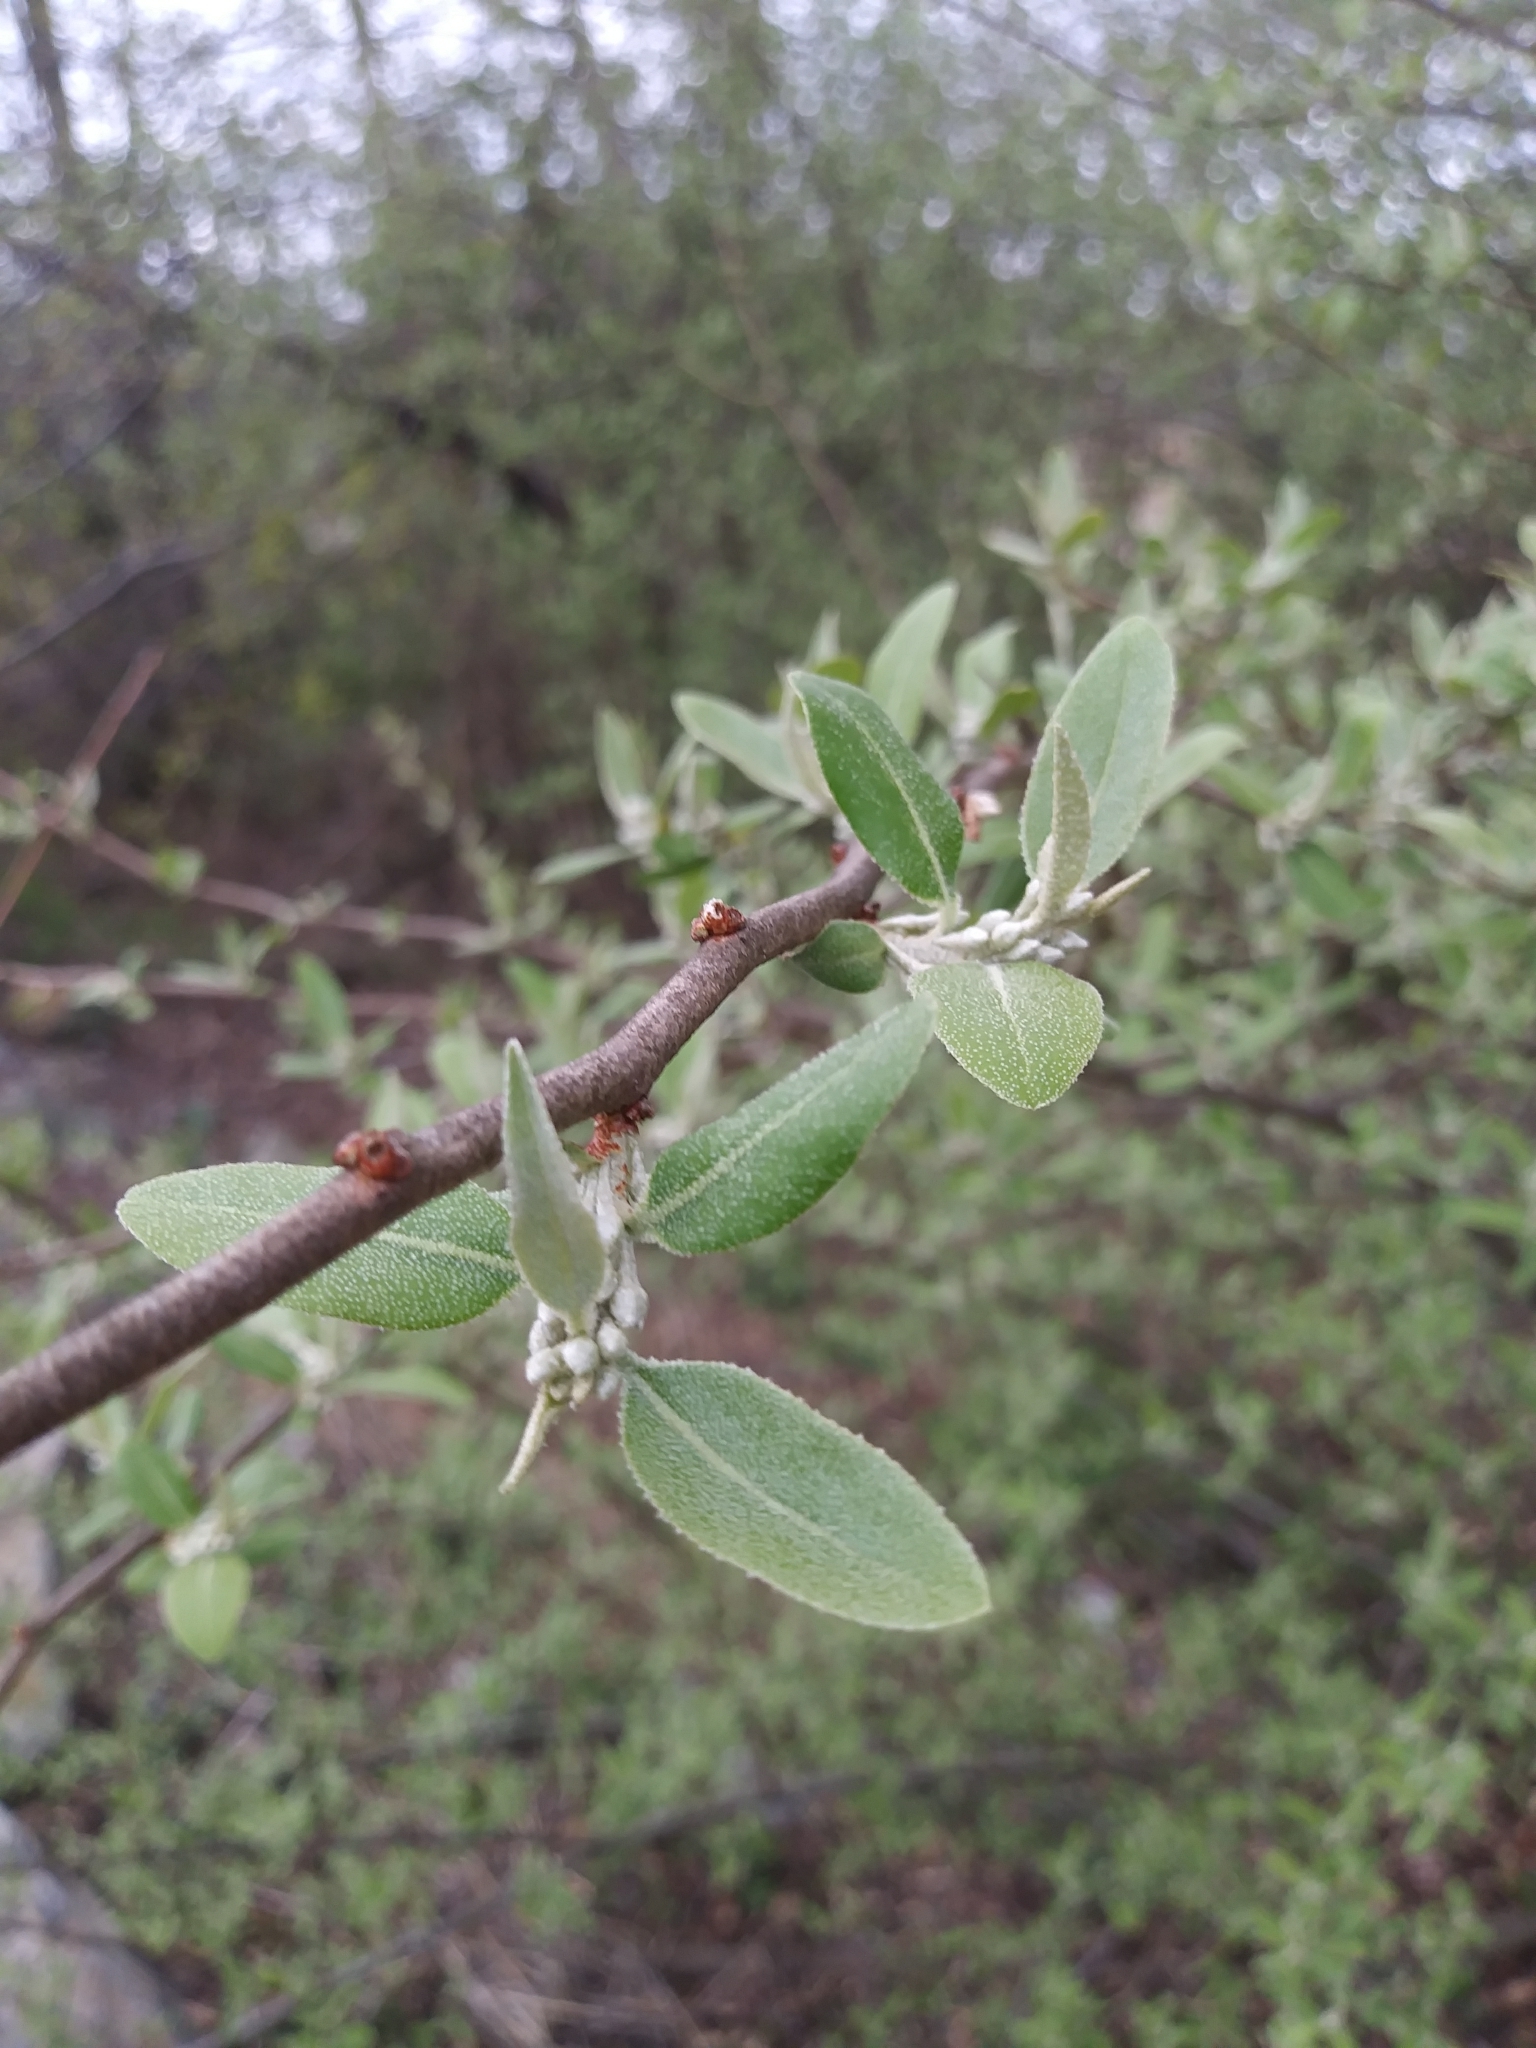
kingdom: Plantae
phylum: Tracheophyta
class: Magnoliopsida
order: Rosales
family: Elaeagnaceae
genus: Elaeagnus
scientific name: Elaeagnus umbellata
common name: Autumn olive
